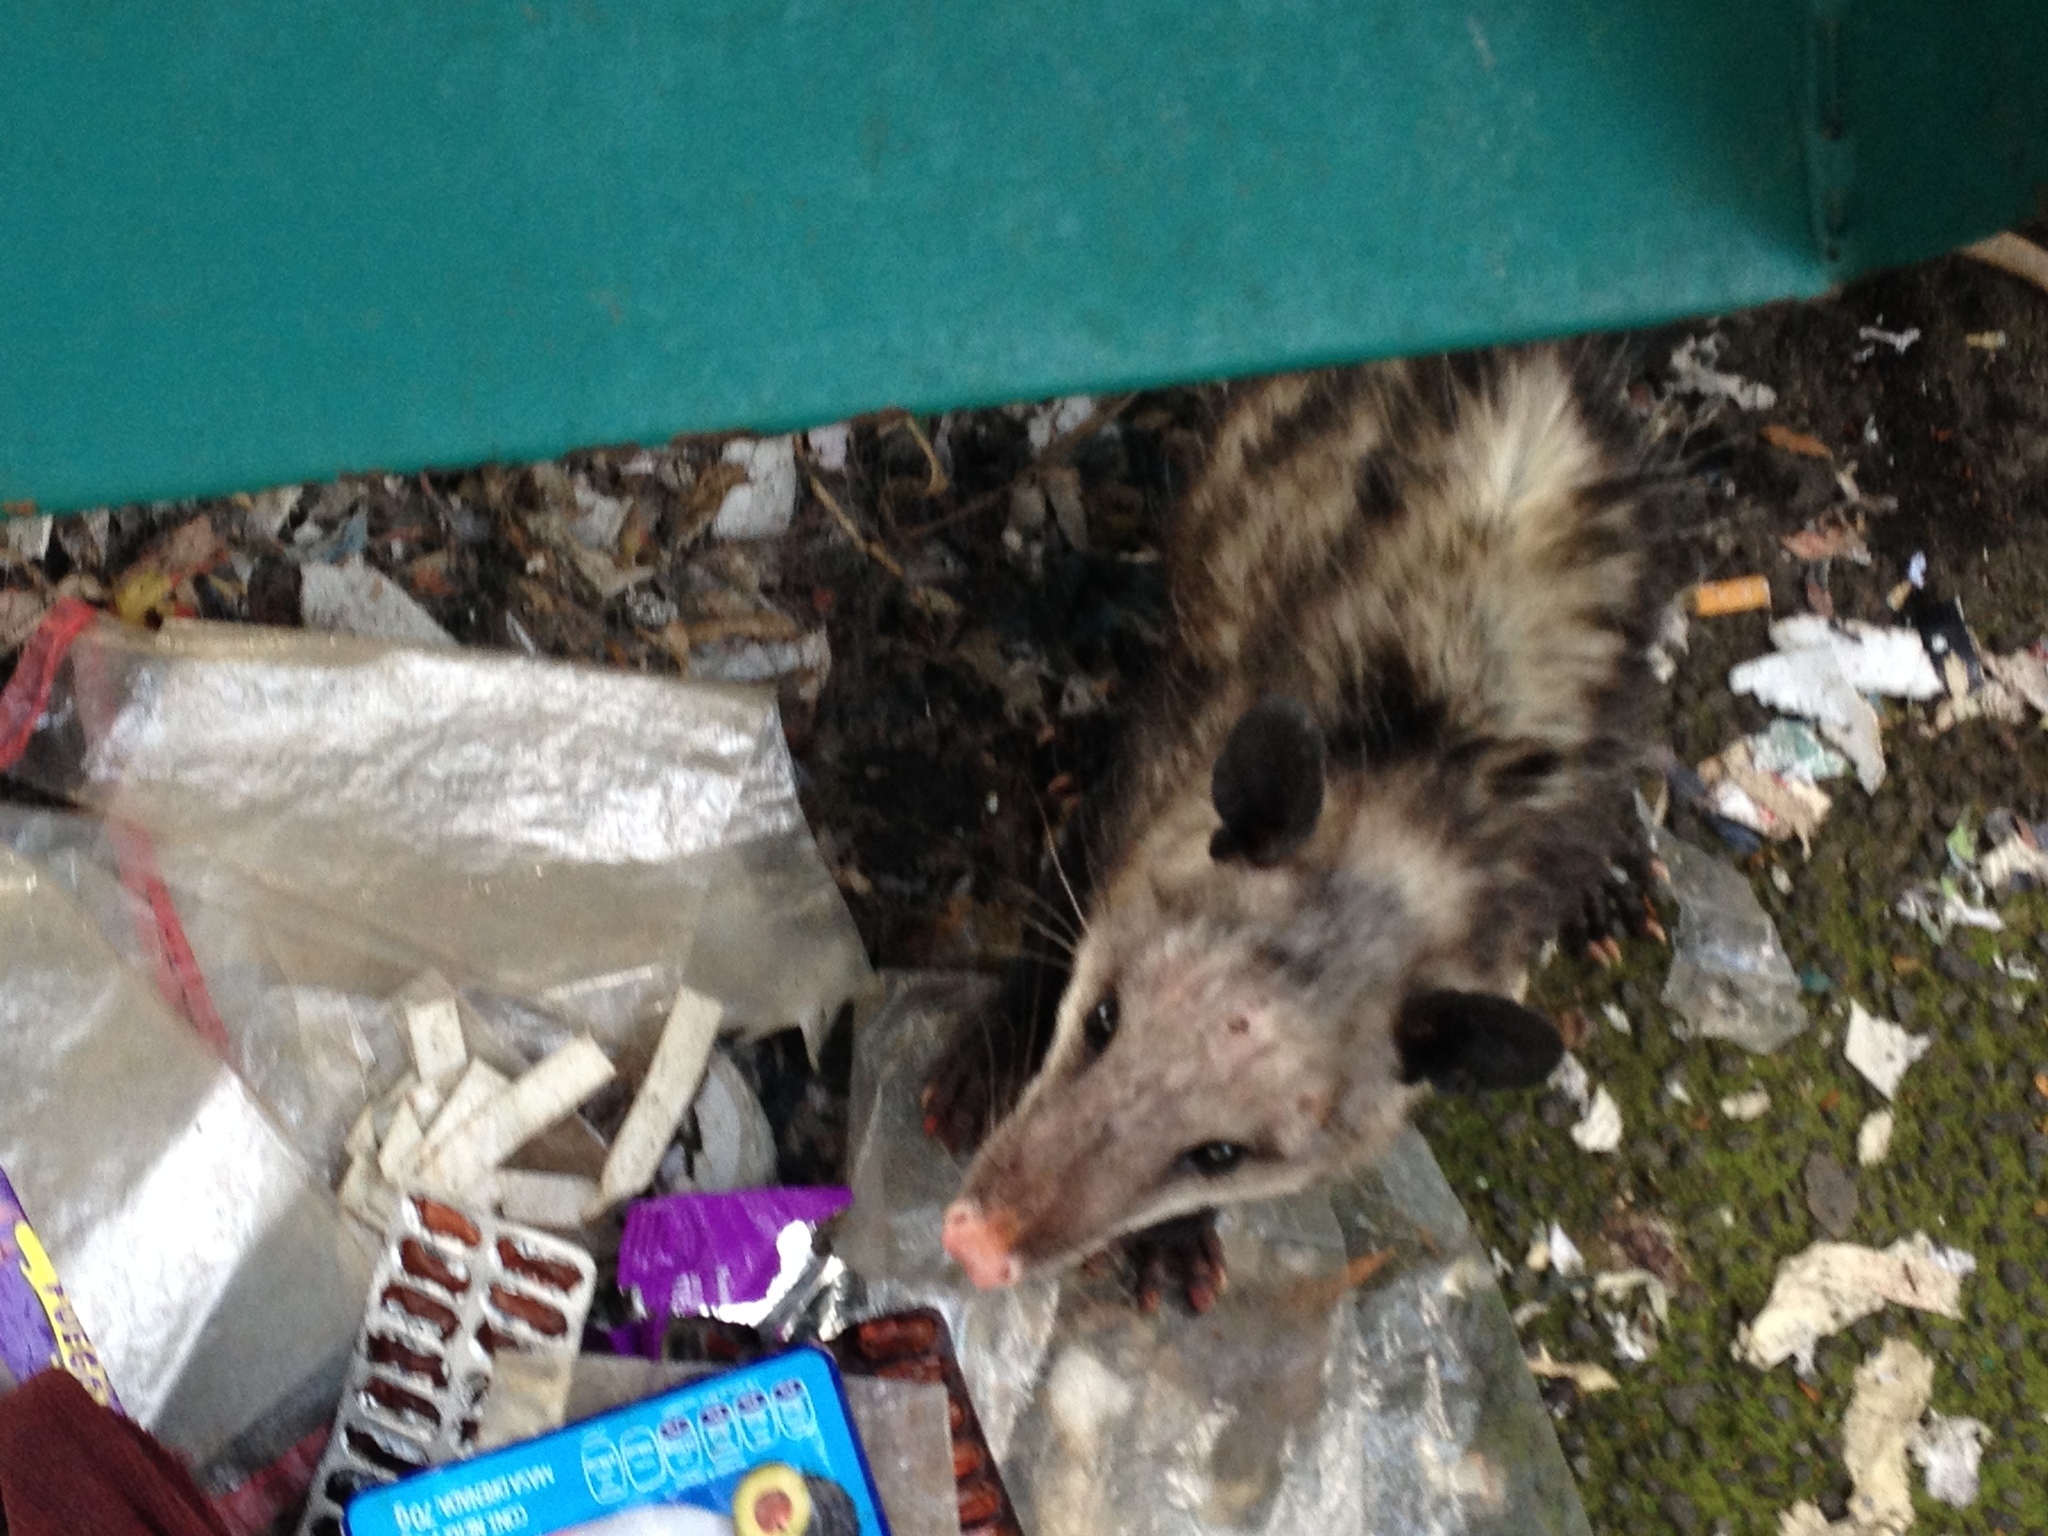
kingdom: Animalia
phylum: Chordata
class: Mammalia
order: Didelphimorphia
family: Didelphidae
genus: Didelphis
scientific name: Didelphis virginiana
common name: Virginia opossum
